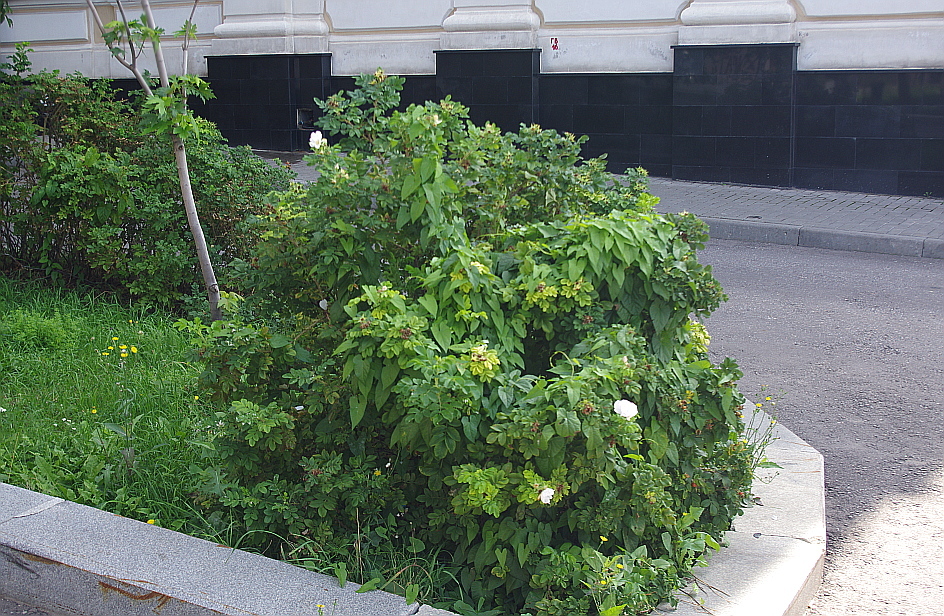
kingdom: Plantae
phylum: Tracheophyta
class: Magnoliopsida
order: Solanales
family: Convolvulaceae
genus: Calystegia
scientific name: Calystegia sepium
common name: Hedge bindweed
